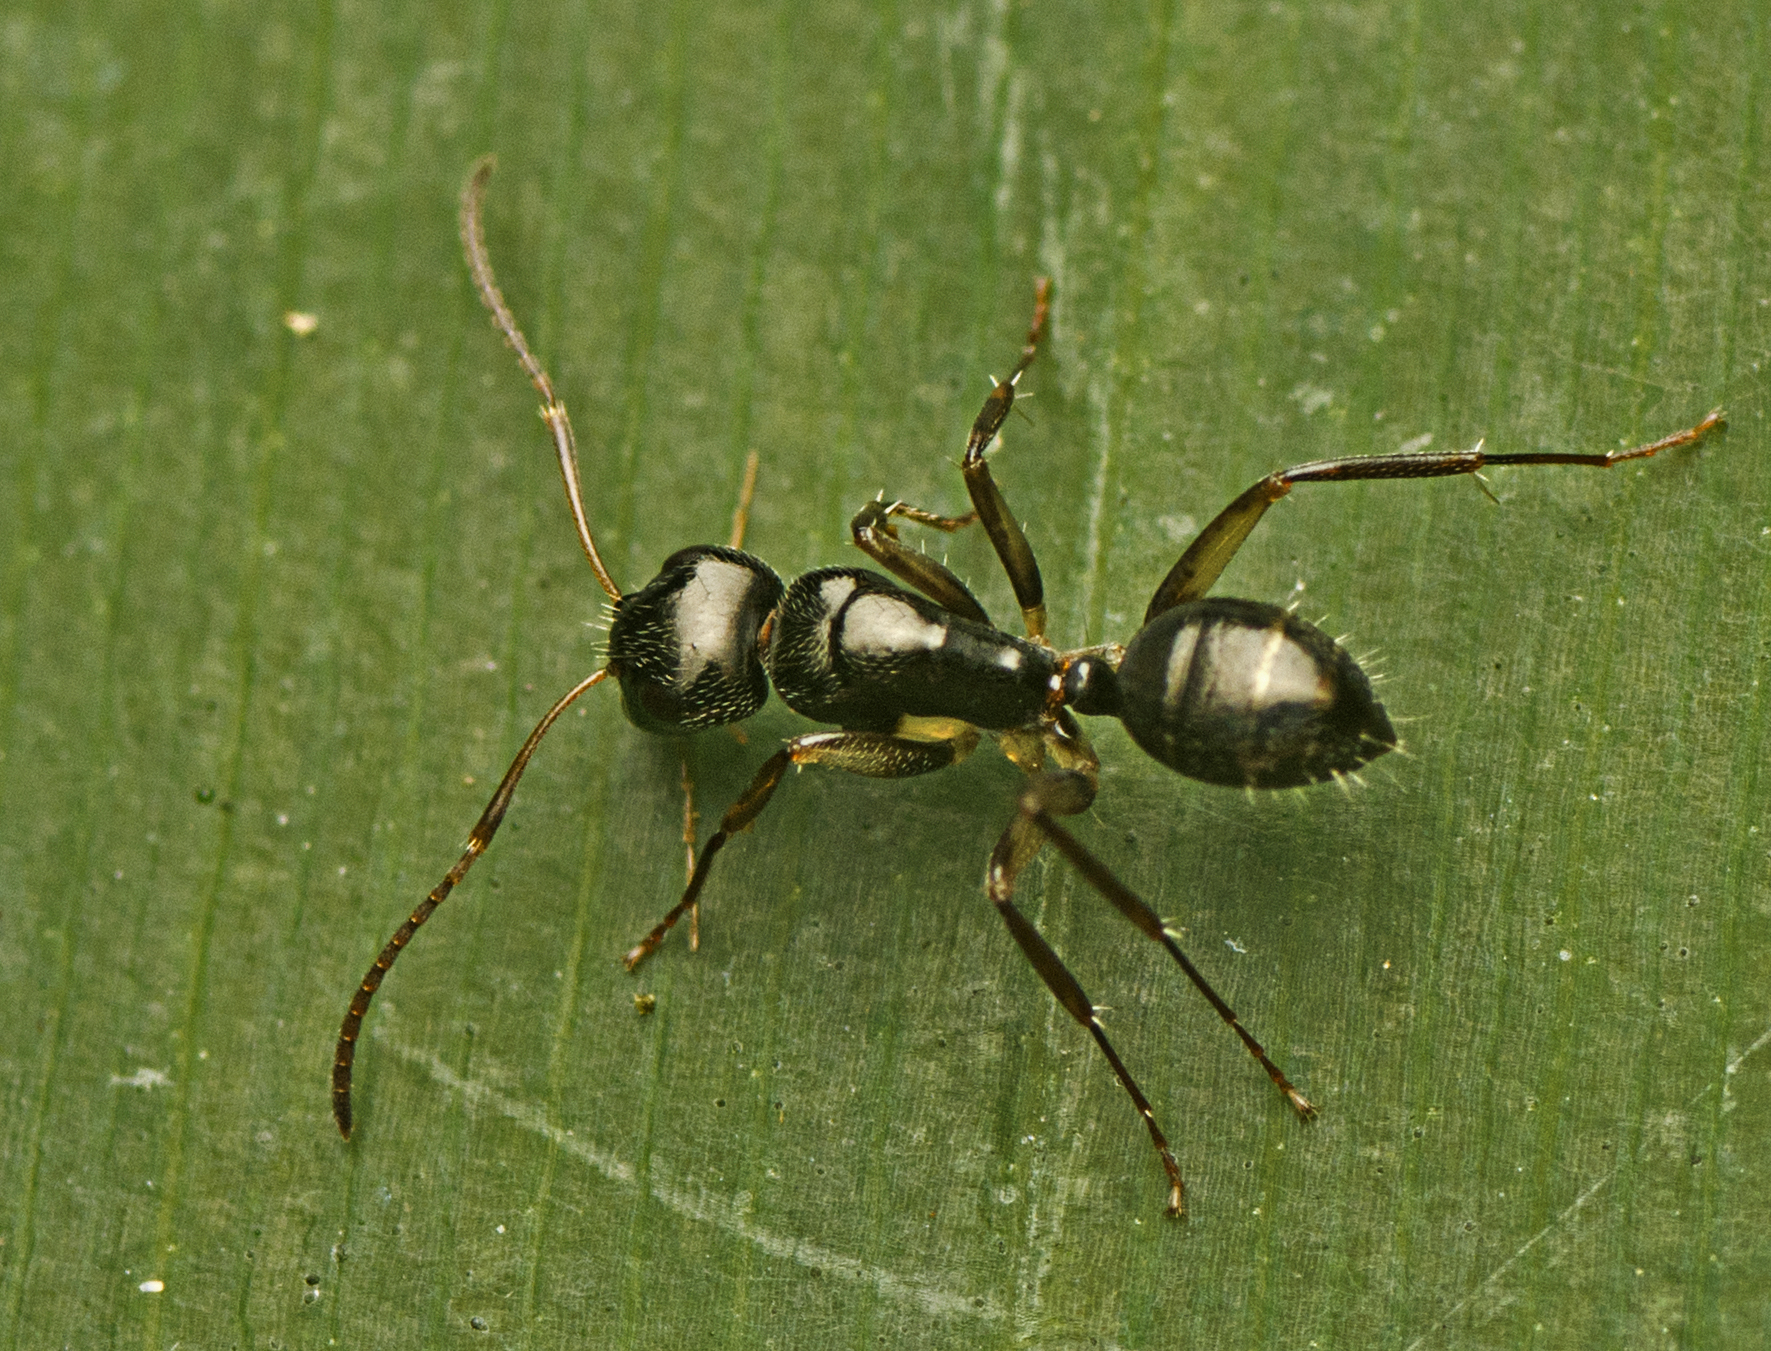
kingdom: Animalia
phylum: Arthropoda
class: Insecta
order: Hymenoptera
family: Formicidae
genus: Camponotus
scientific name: Camponotus froggatti
